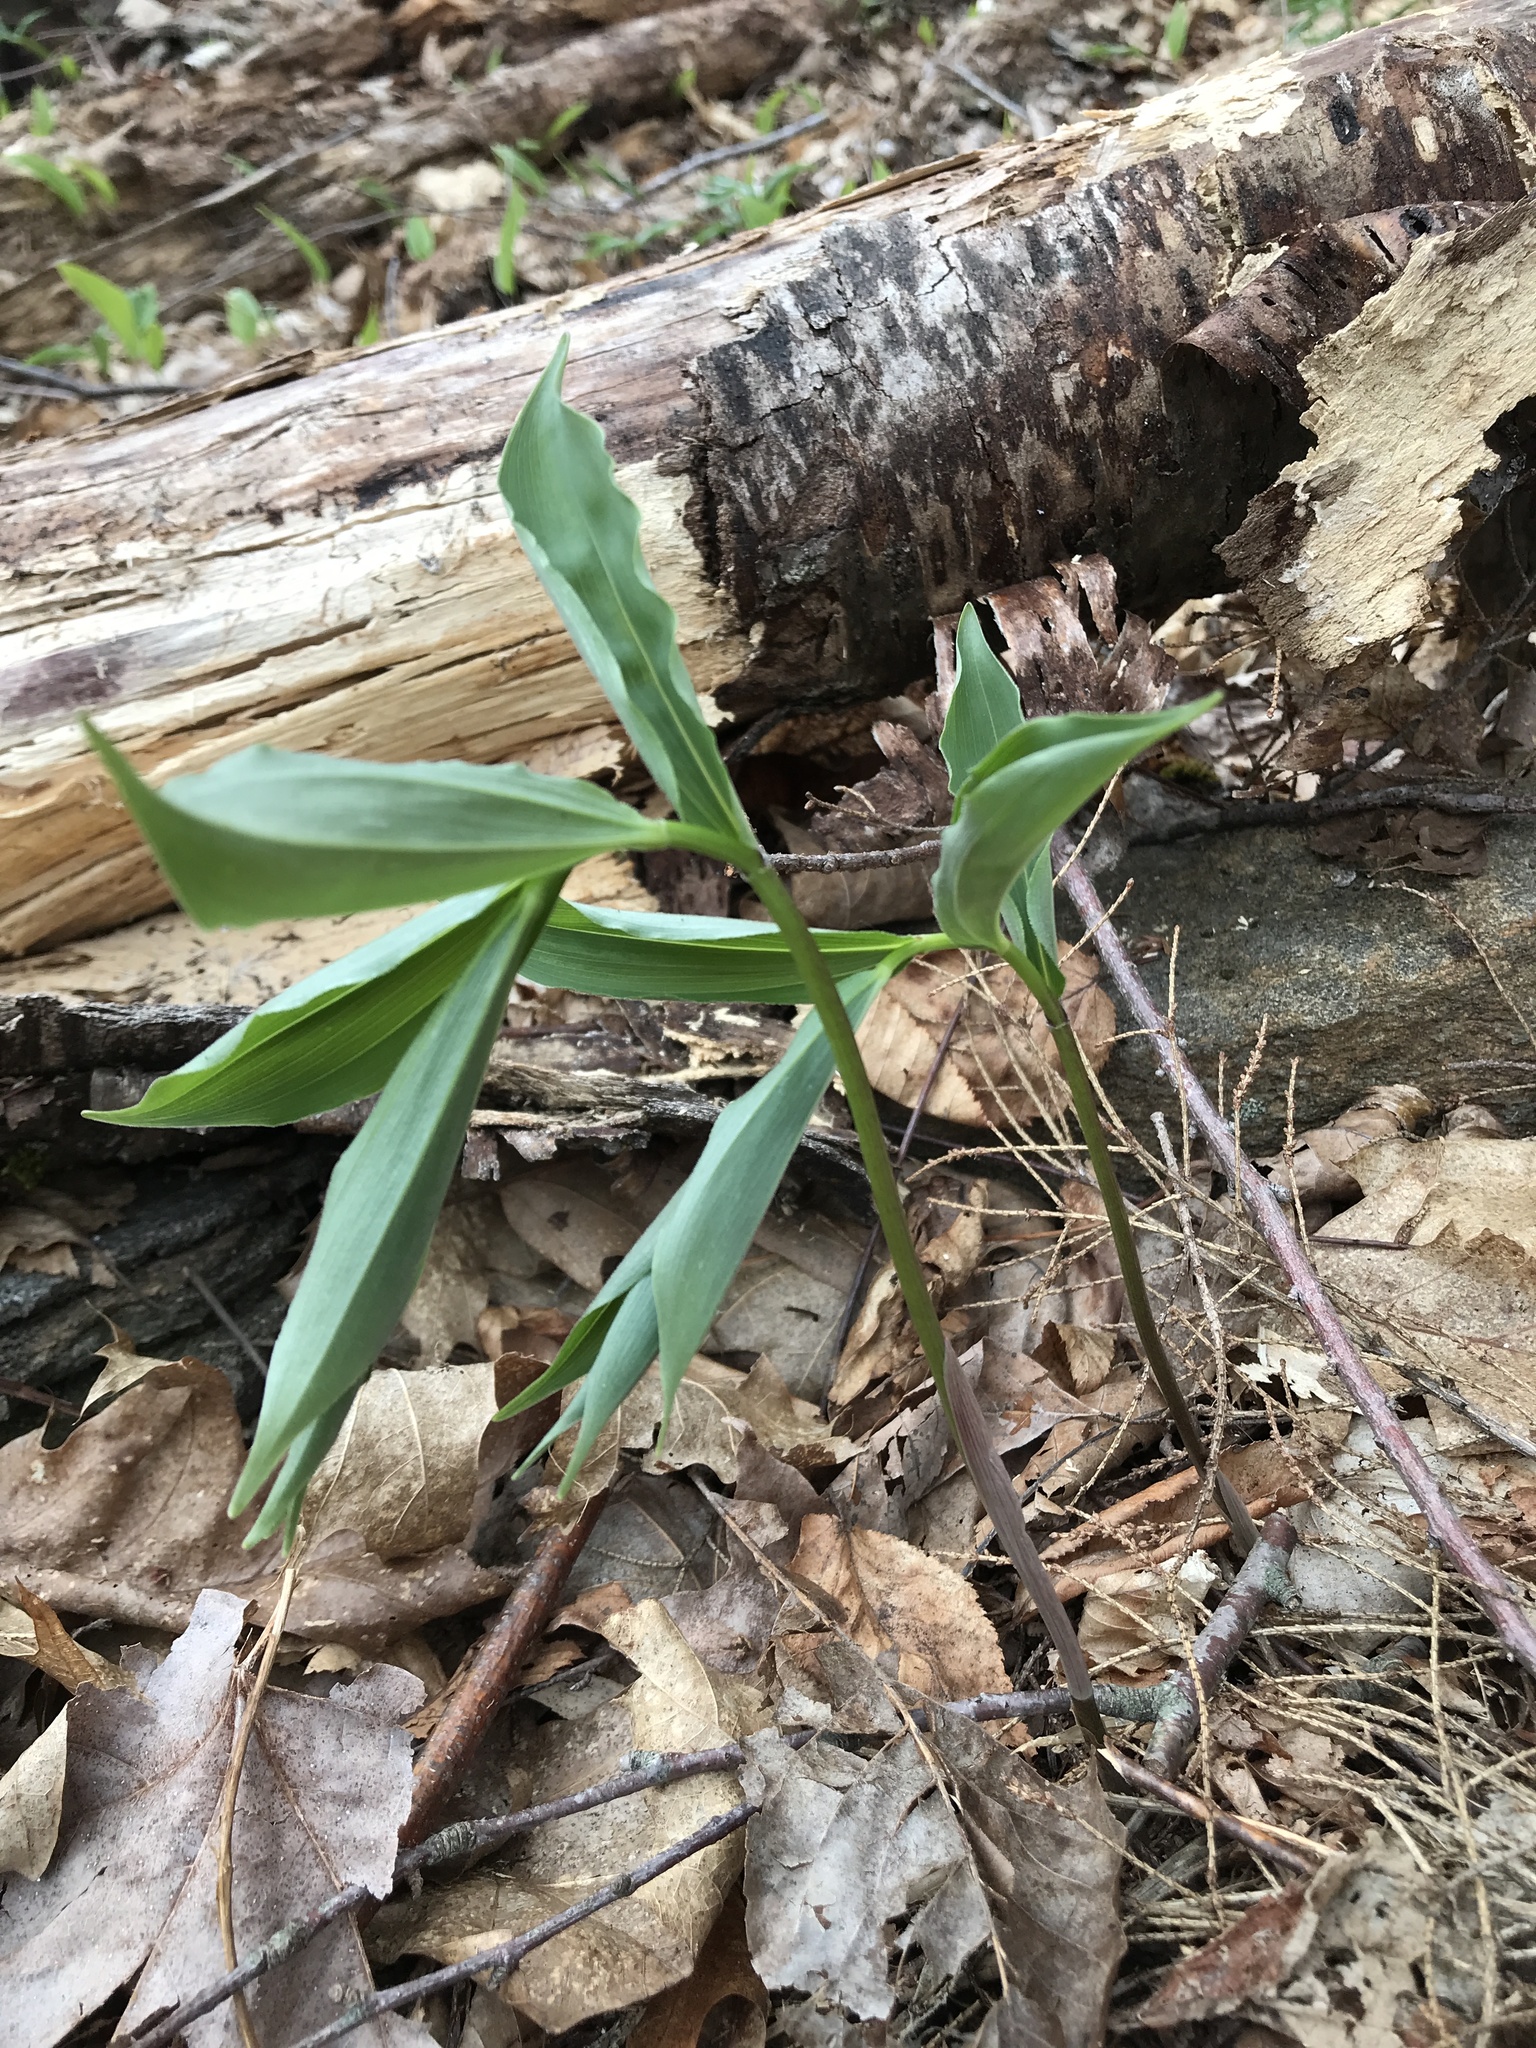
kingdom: Plantae
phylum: Tracheophyta
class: Liliopsida
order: Asparagales
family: Asparagaceae
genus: Maianthemum
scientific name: Maianthemum racemosum
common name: False spikenard
